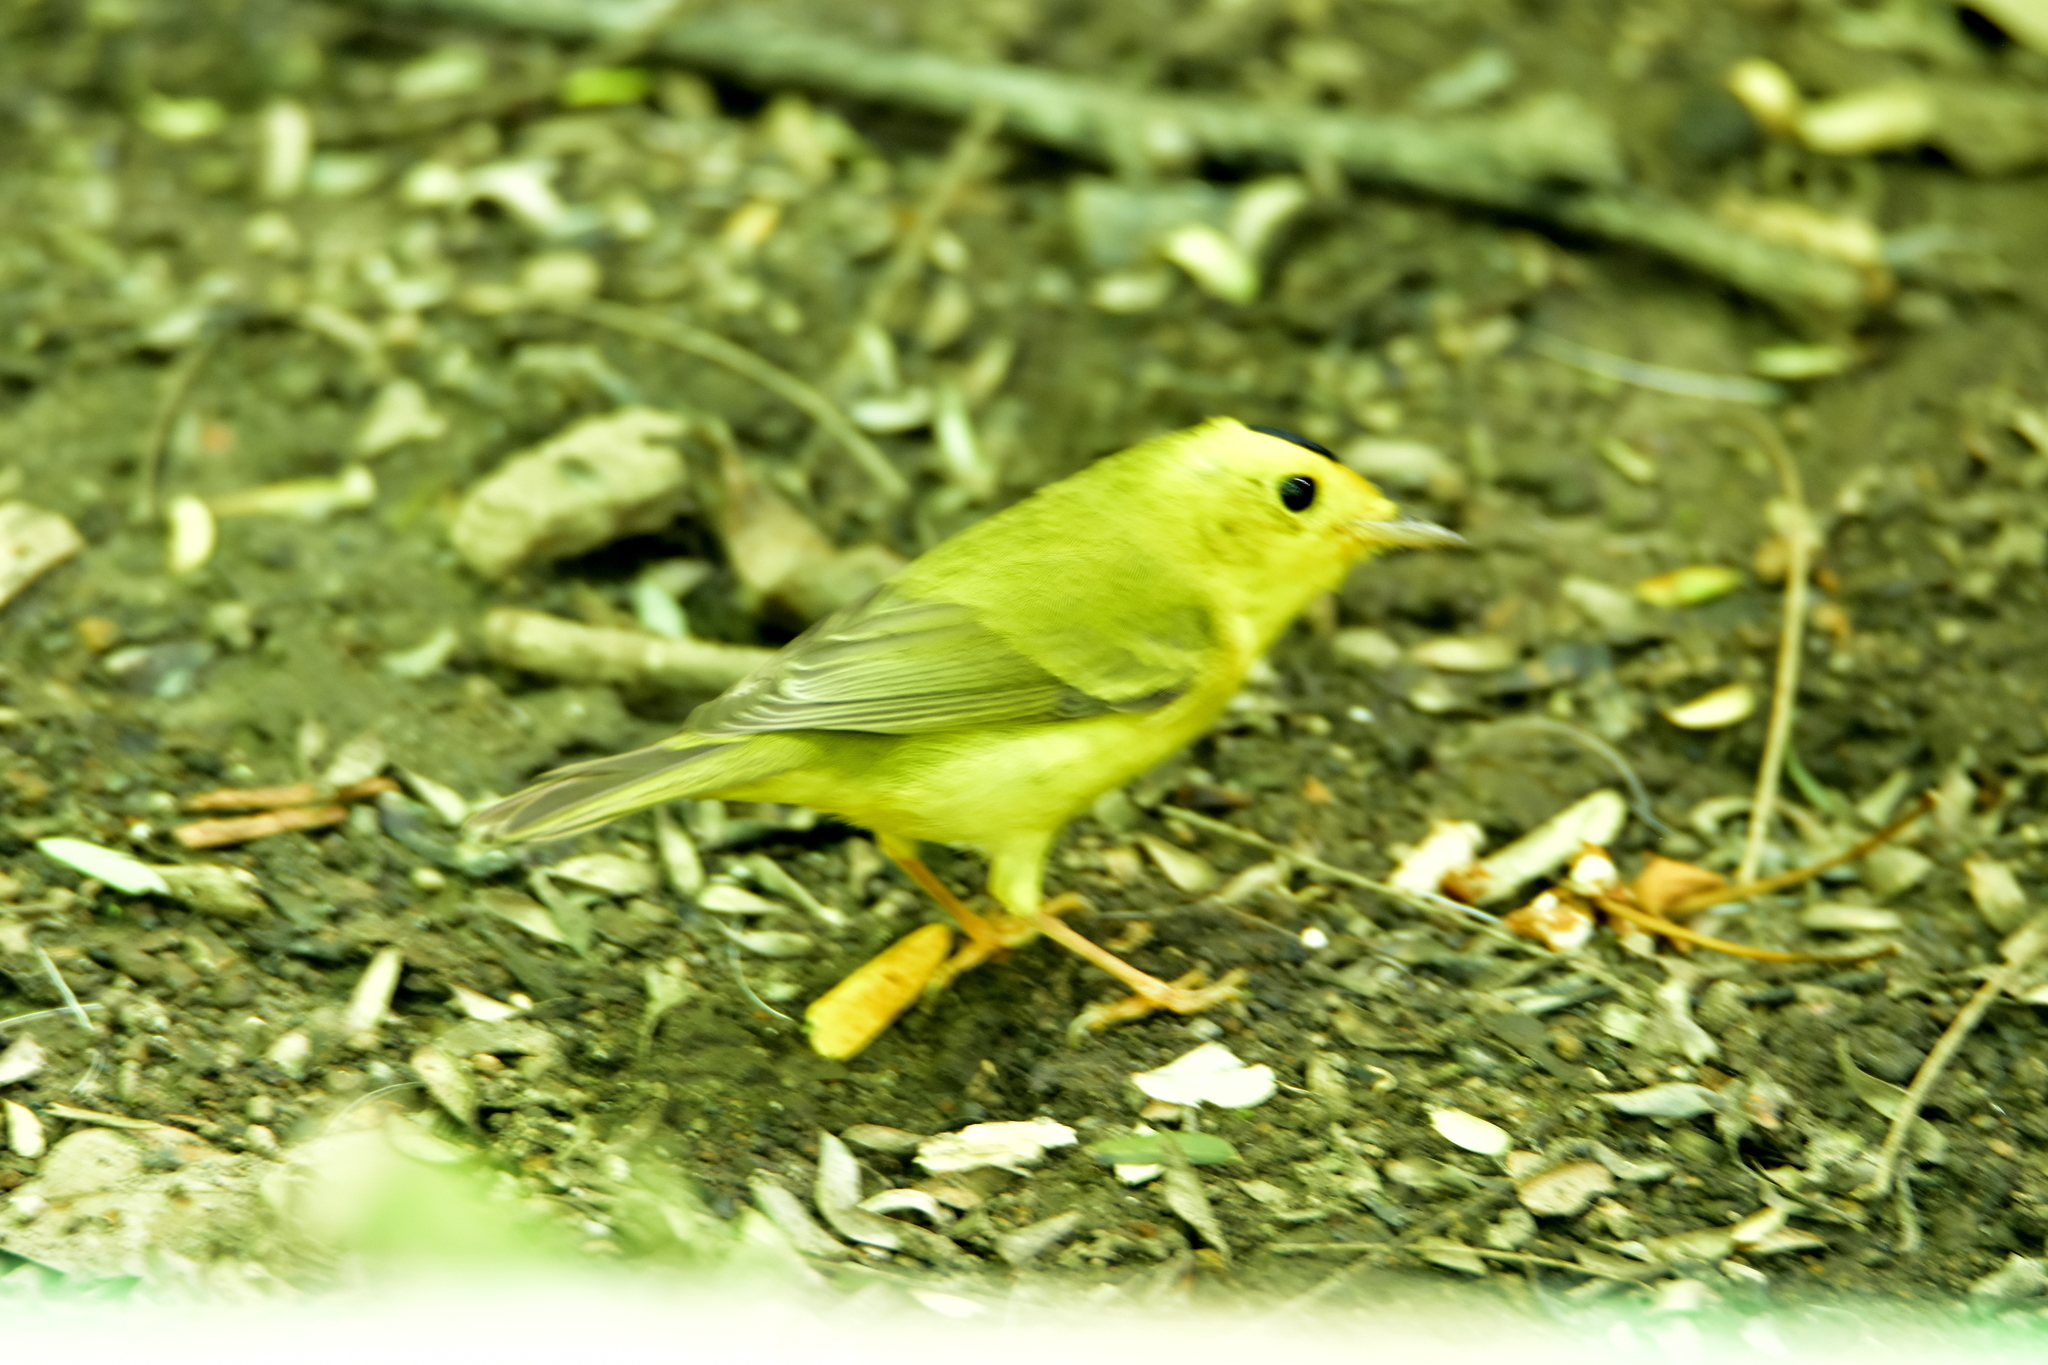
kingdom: Animalia
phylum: Chordata
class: Aves
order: Passeriformes
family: Parulidae
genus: Cardellina
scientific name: Cardellina pusilla
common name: Wilson's warbler
